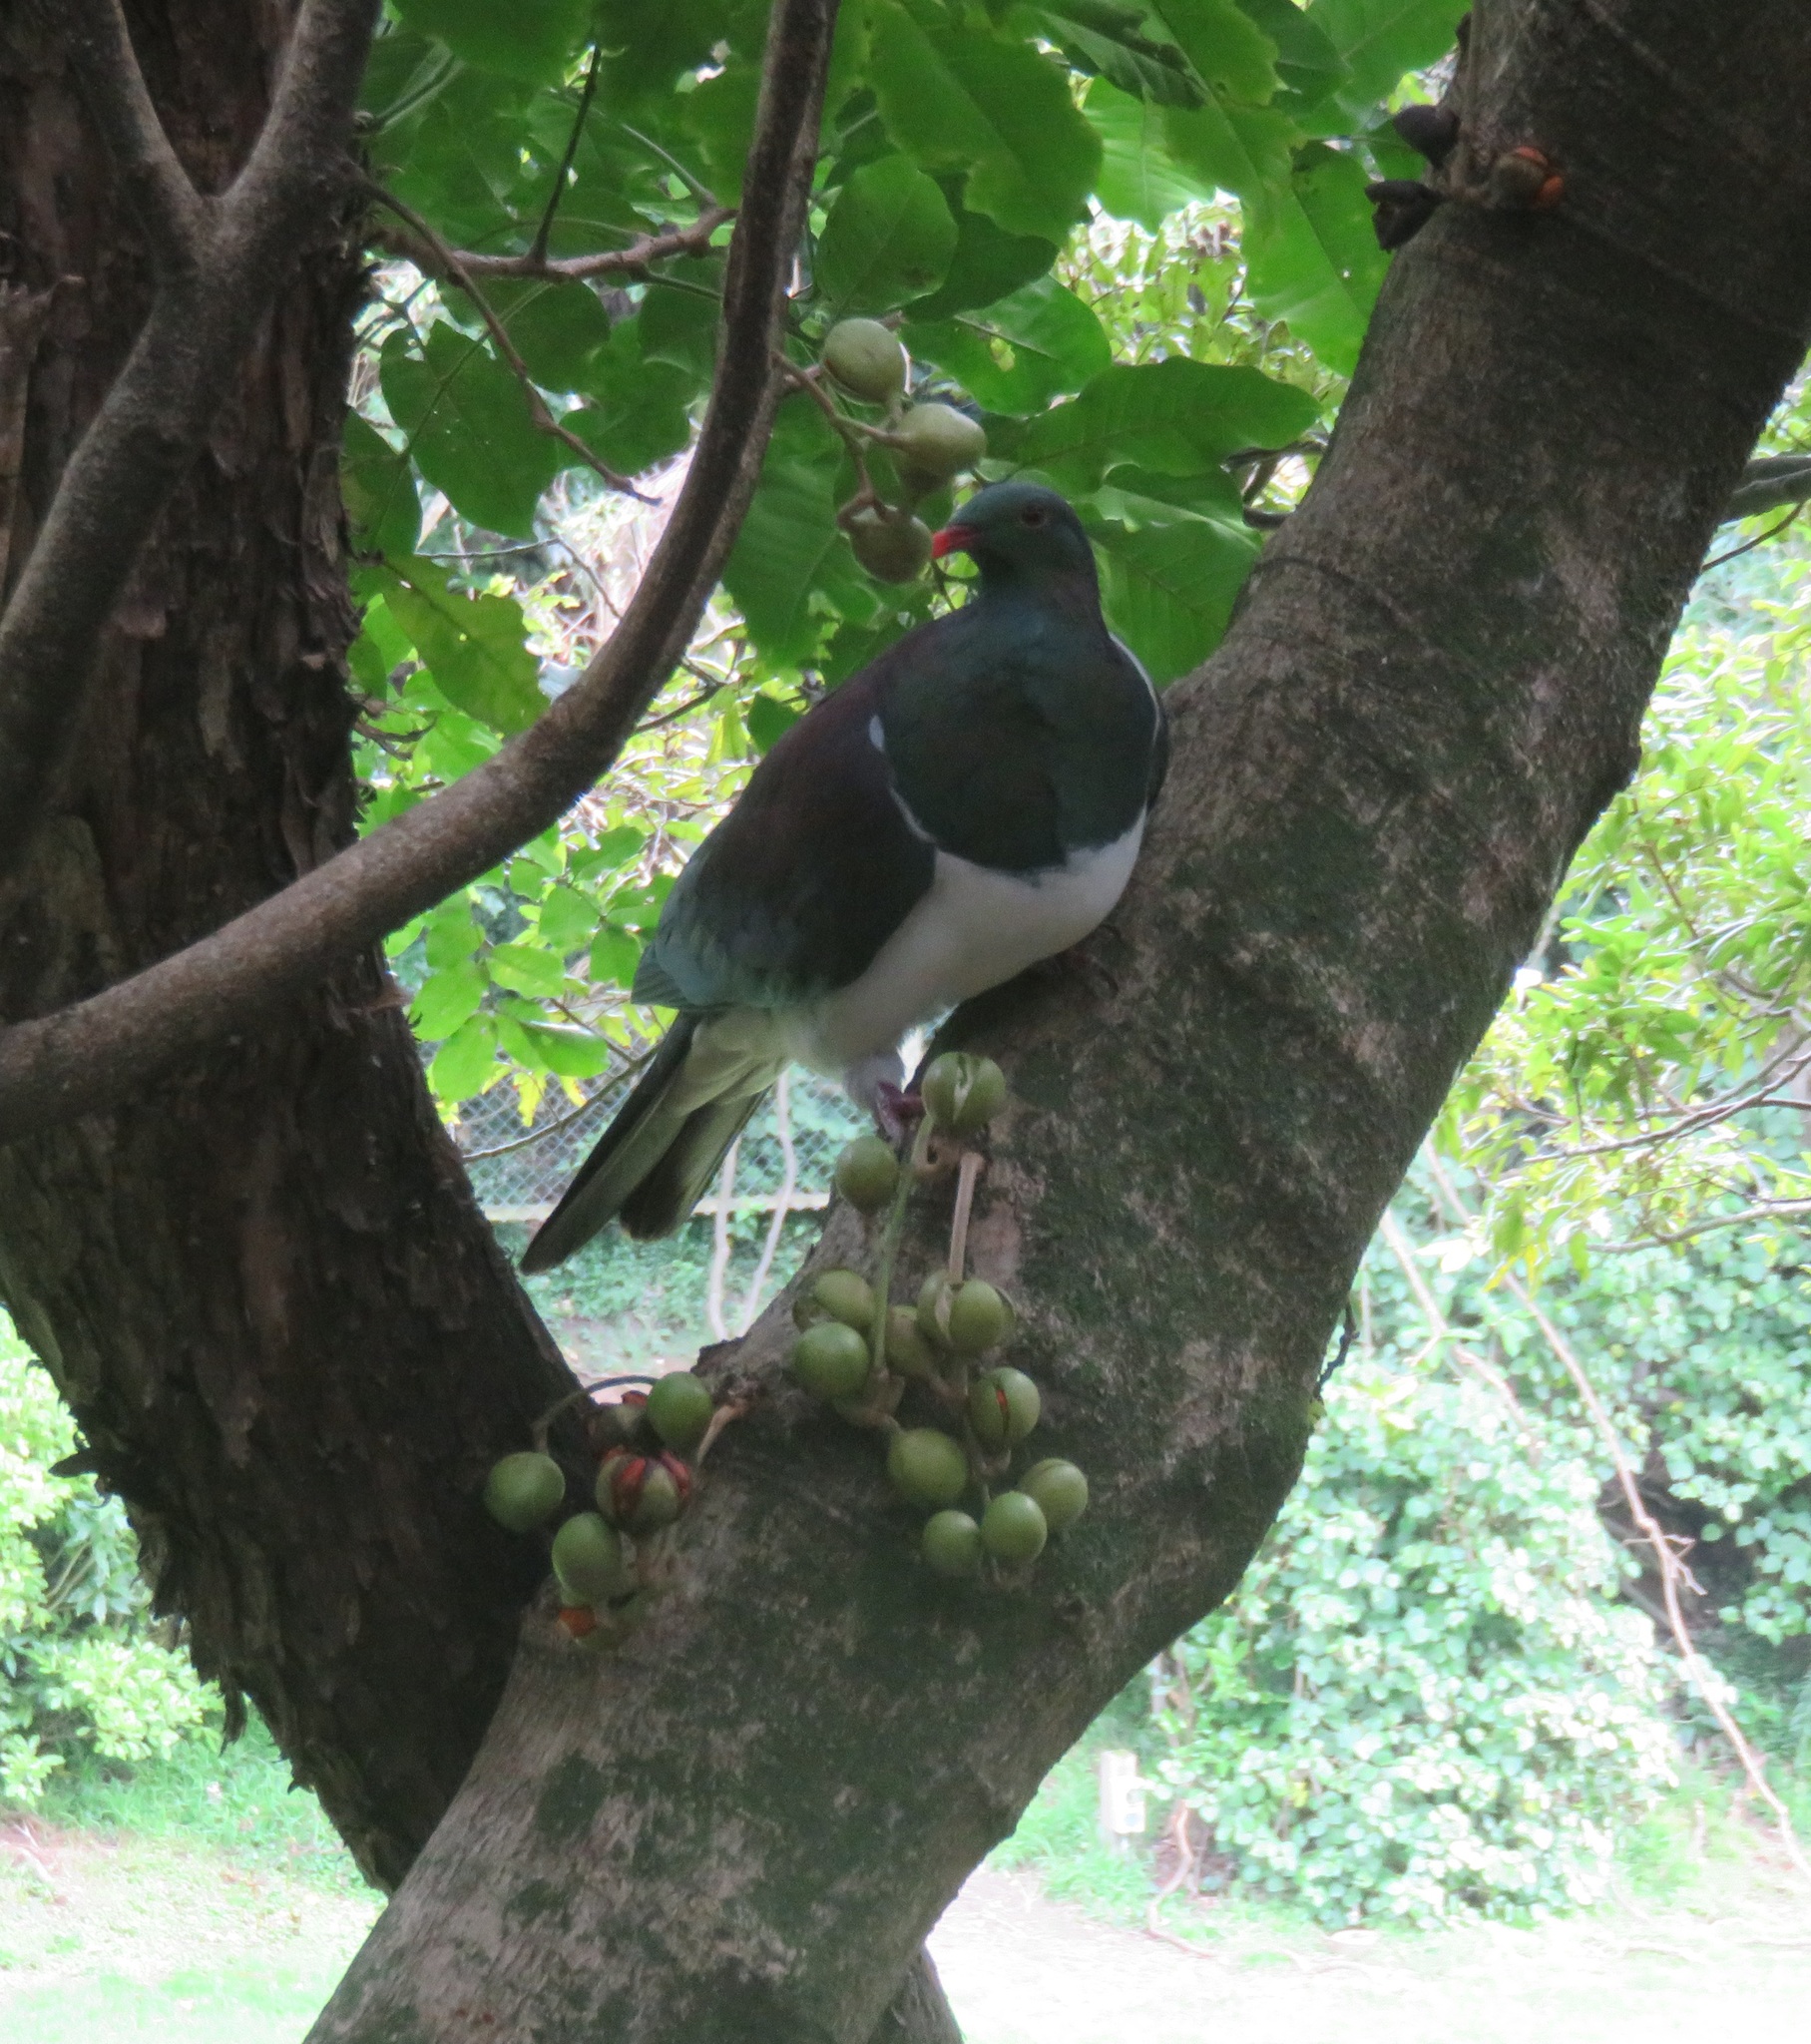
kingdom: Animalia
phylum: Chordata
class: Aves
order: Columbiformes
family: Columbidae
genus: Hemiphaga
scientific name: Hemiphaga novaeseelandiae
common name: New zealand pigeon
